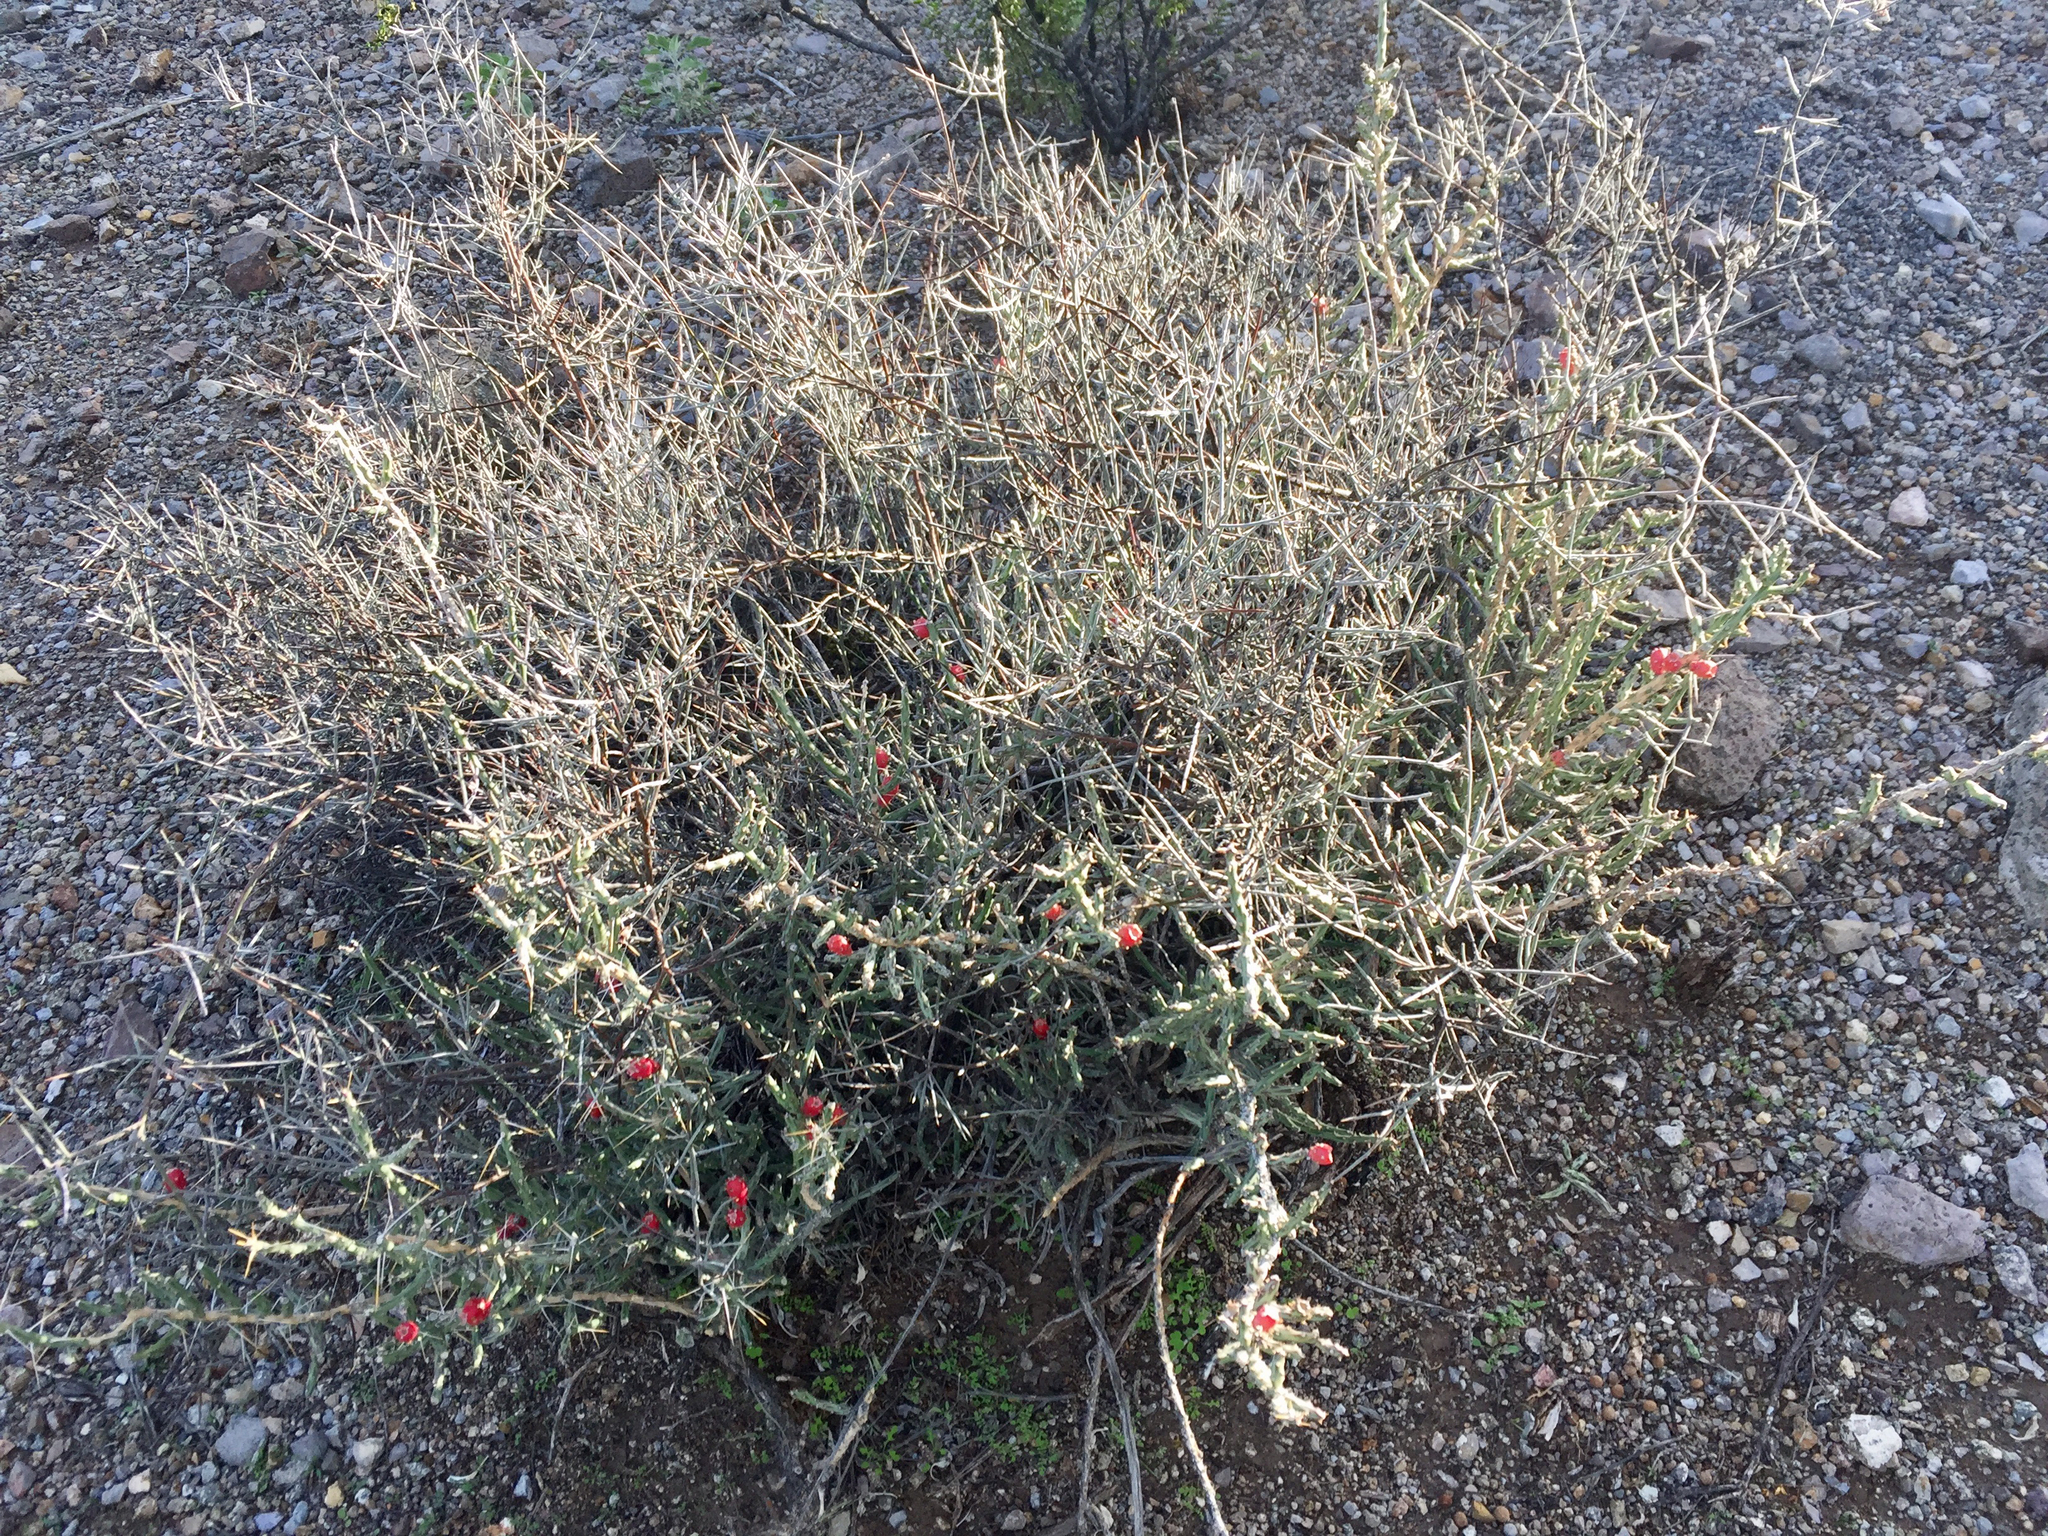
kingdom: Plantae
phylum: Tracheophyta
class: Magnoliopsida
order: Caryophyllales
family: Cactaceae
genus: Cylindropuntia
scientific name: Cylindropuntia leptocaulis
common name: Christmas cactus
